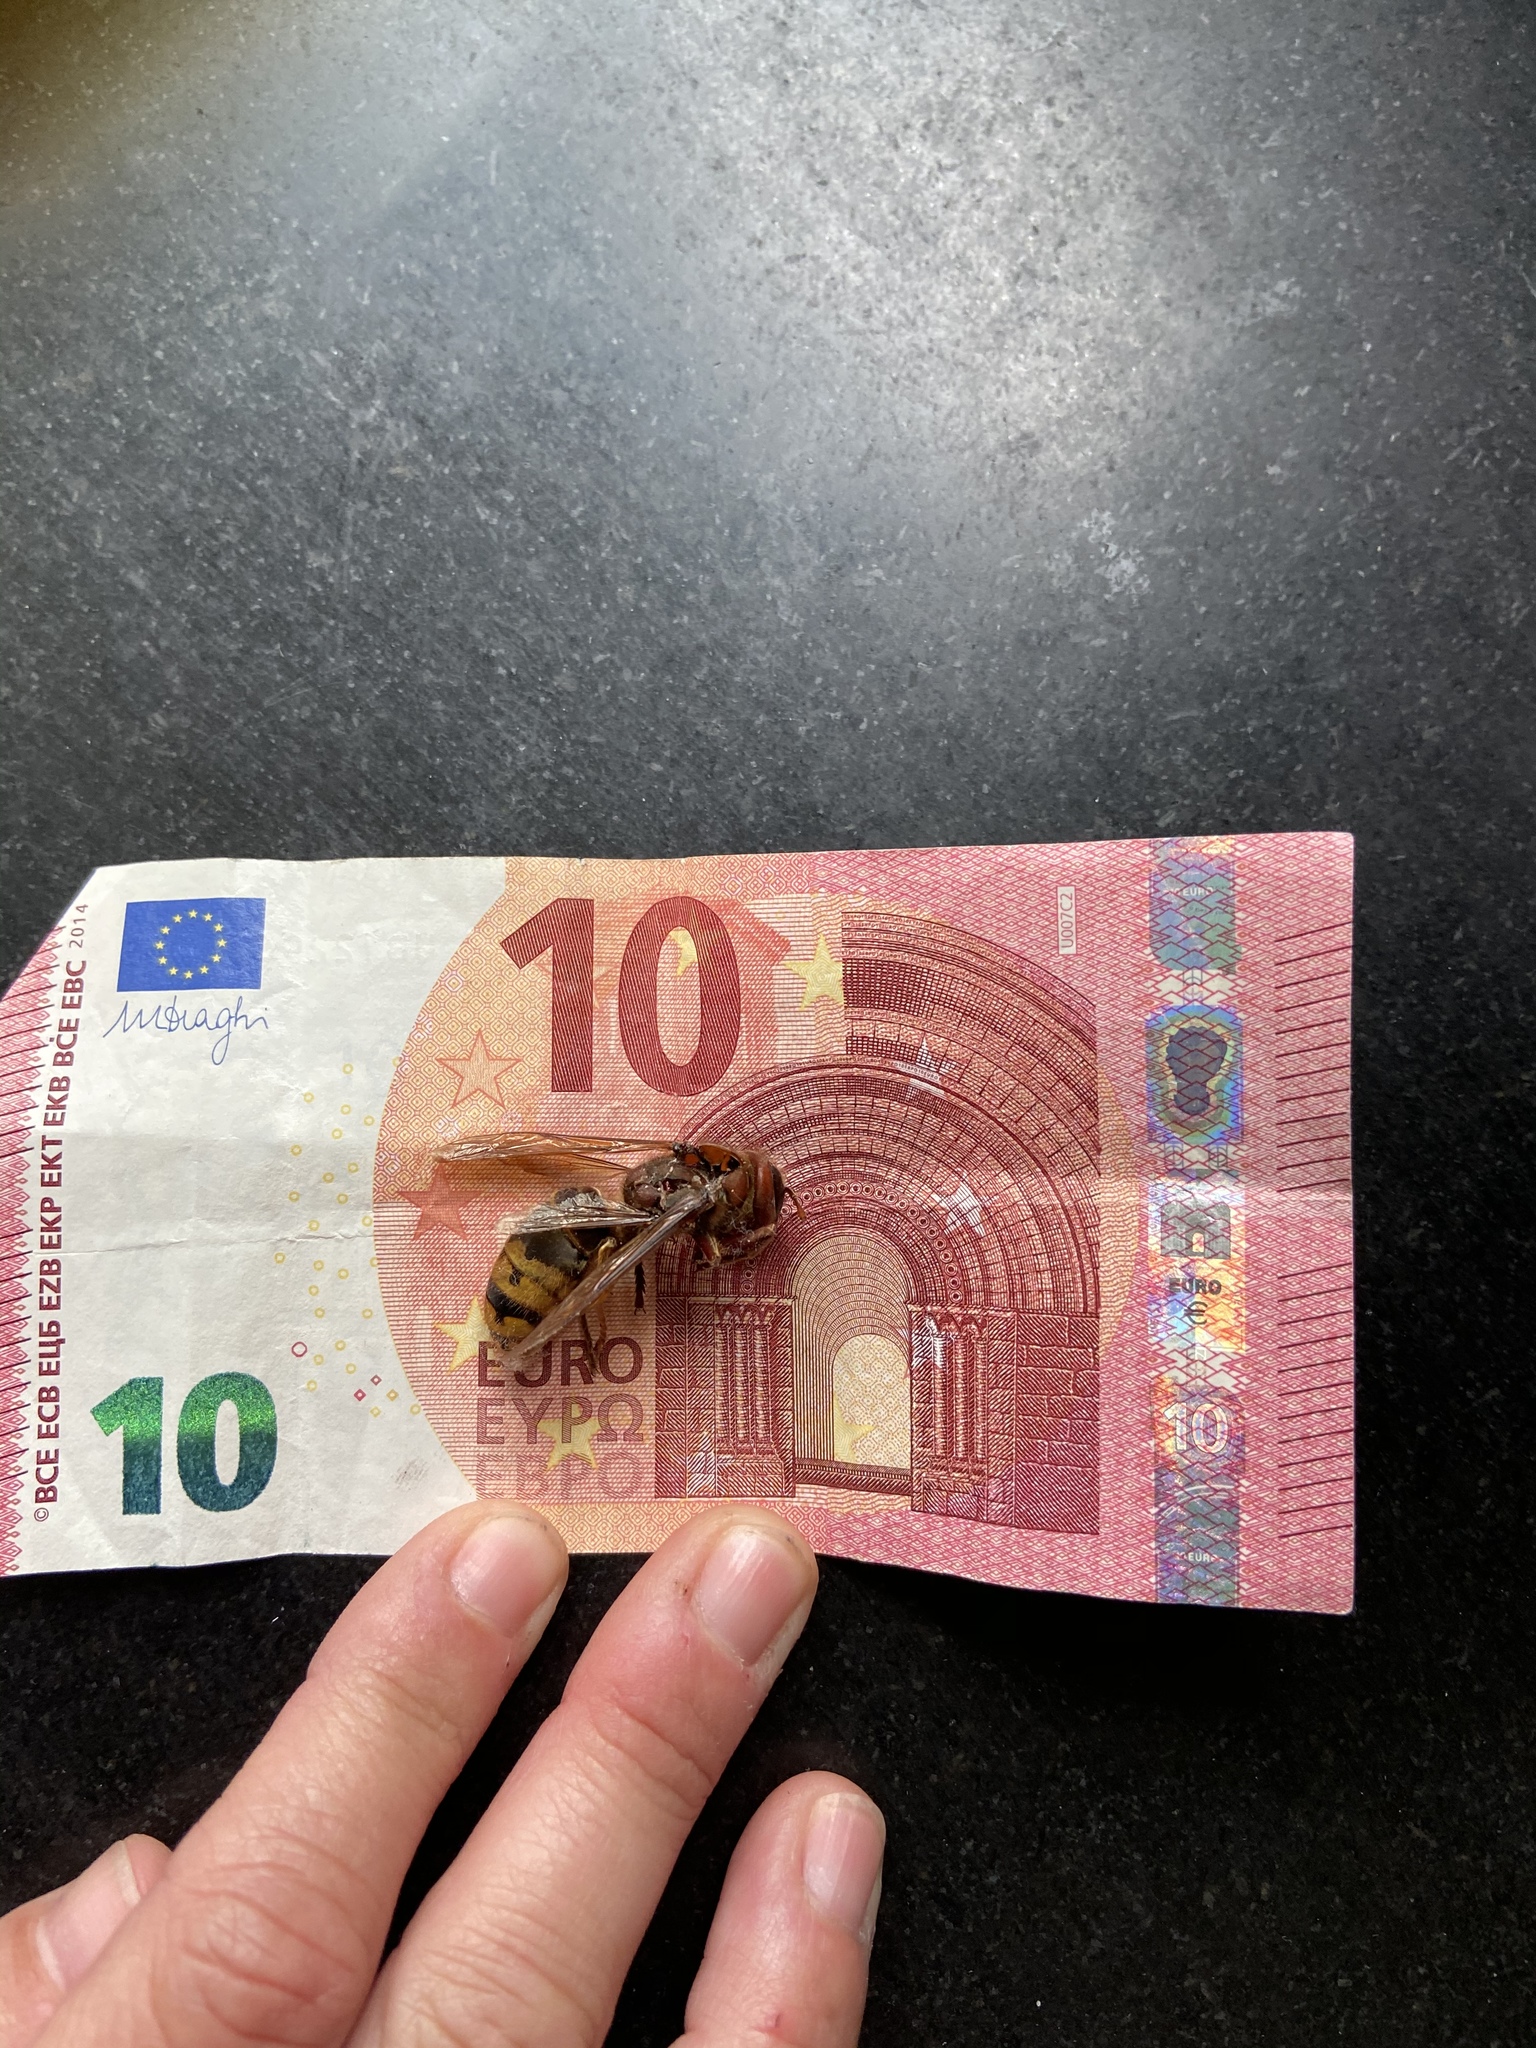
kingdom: Animalia
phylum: Arthropoda
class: Insecta
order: Hymenoptera
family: Vespidae
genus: Vespa
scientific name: Vespa crabro
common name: Hornet
